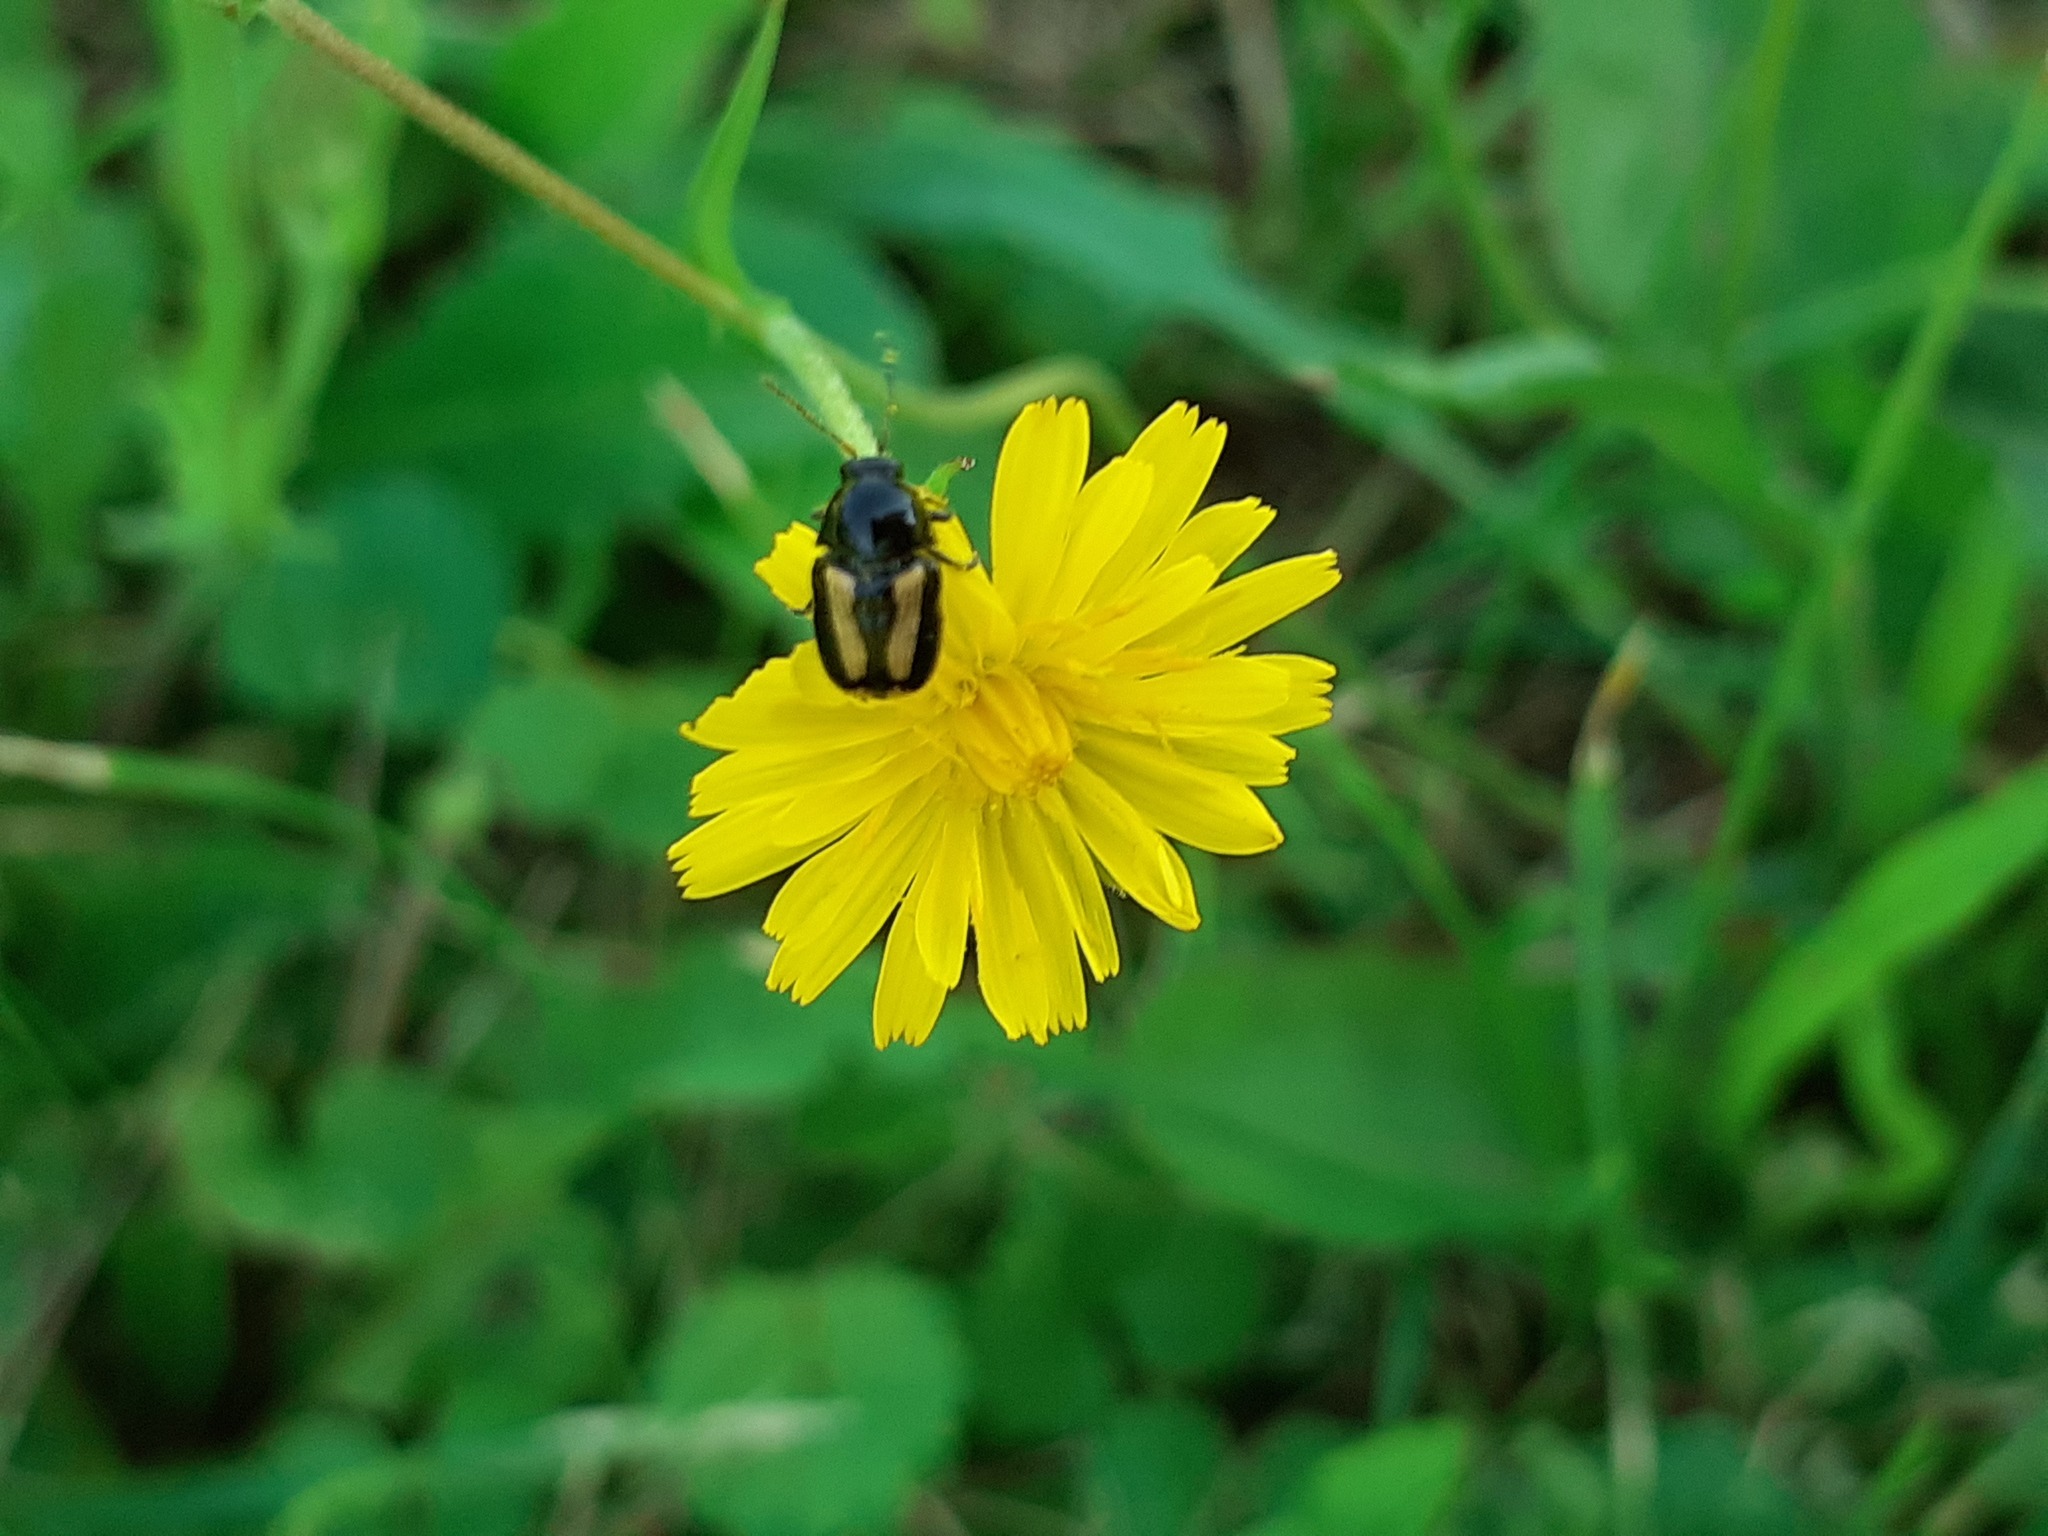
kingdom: Animalia
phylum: Arthropoda
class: Insecta
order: Coleoptera
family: Chrysomelidae
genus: Acalymma
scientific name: Acalymma vittatum
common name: Striped cucumber beetle
